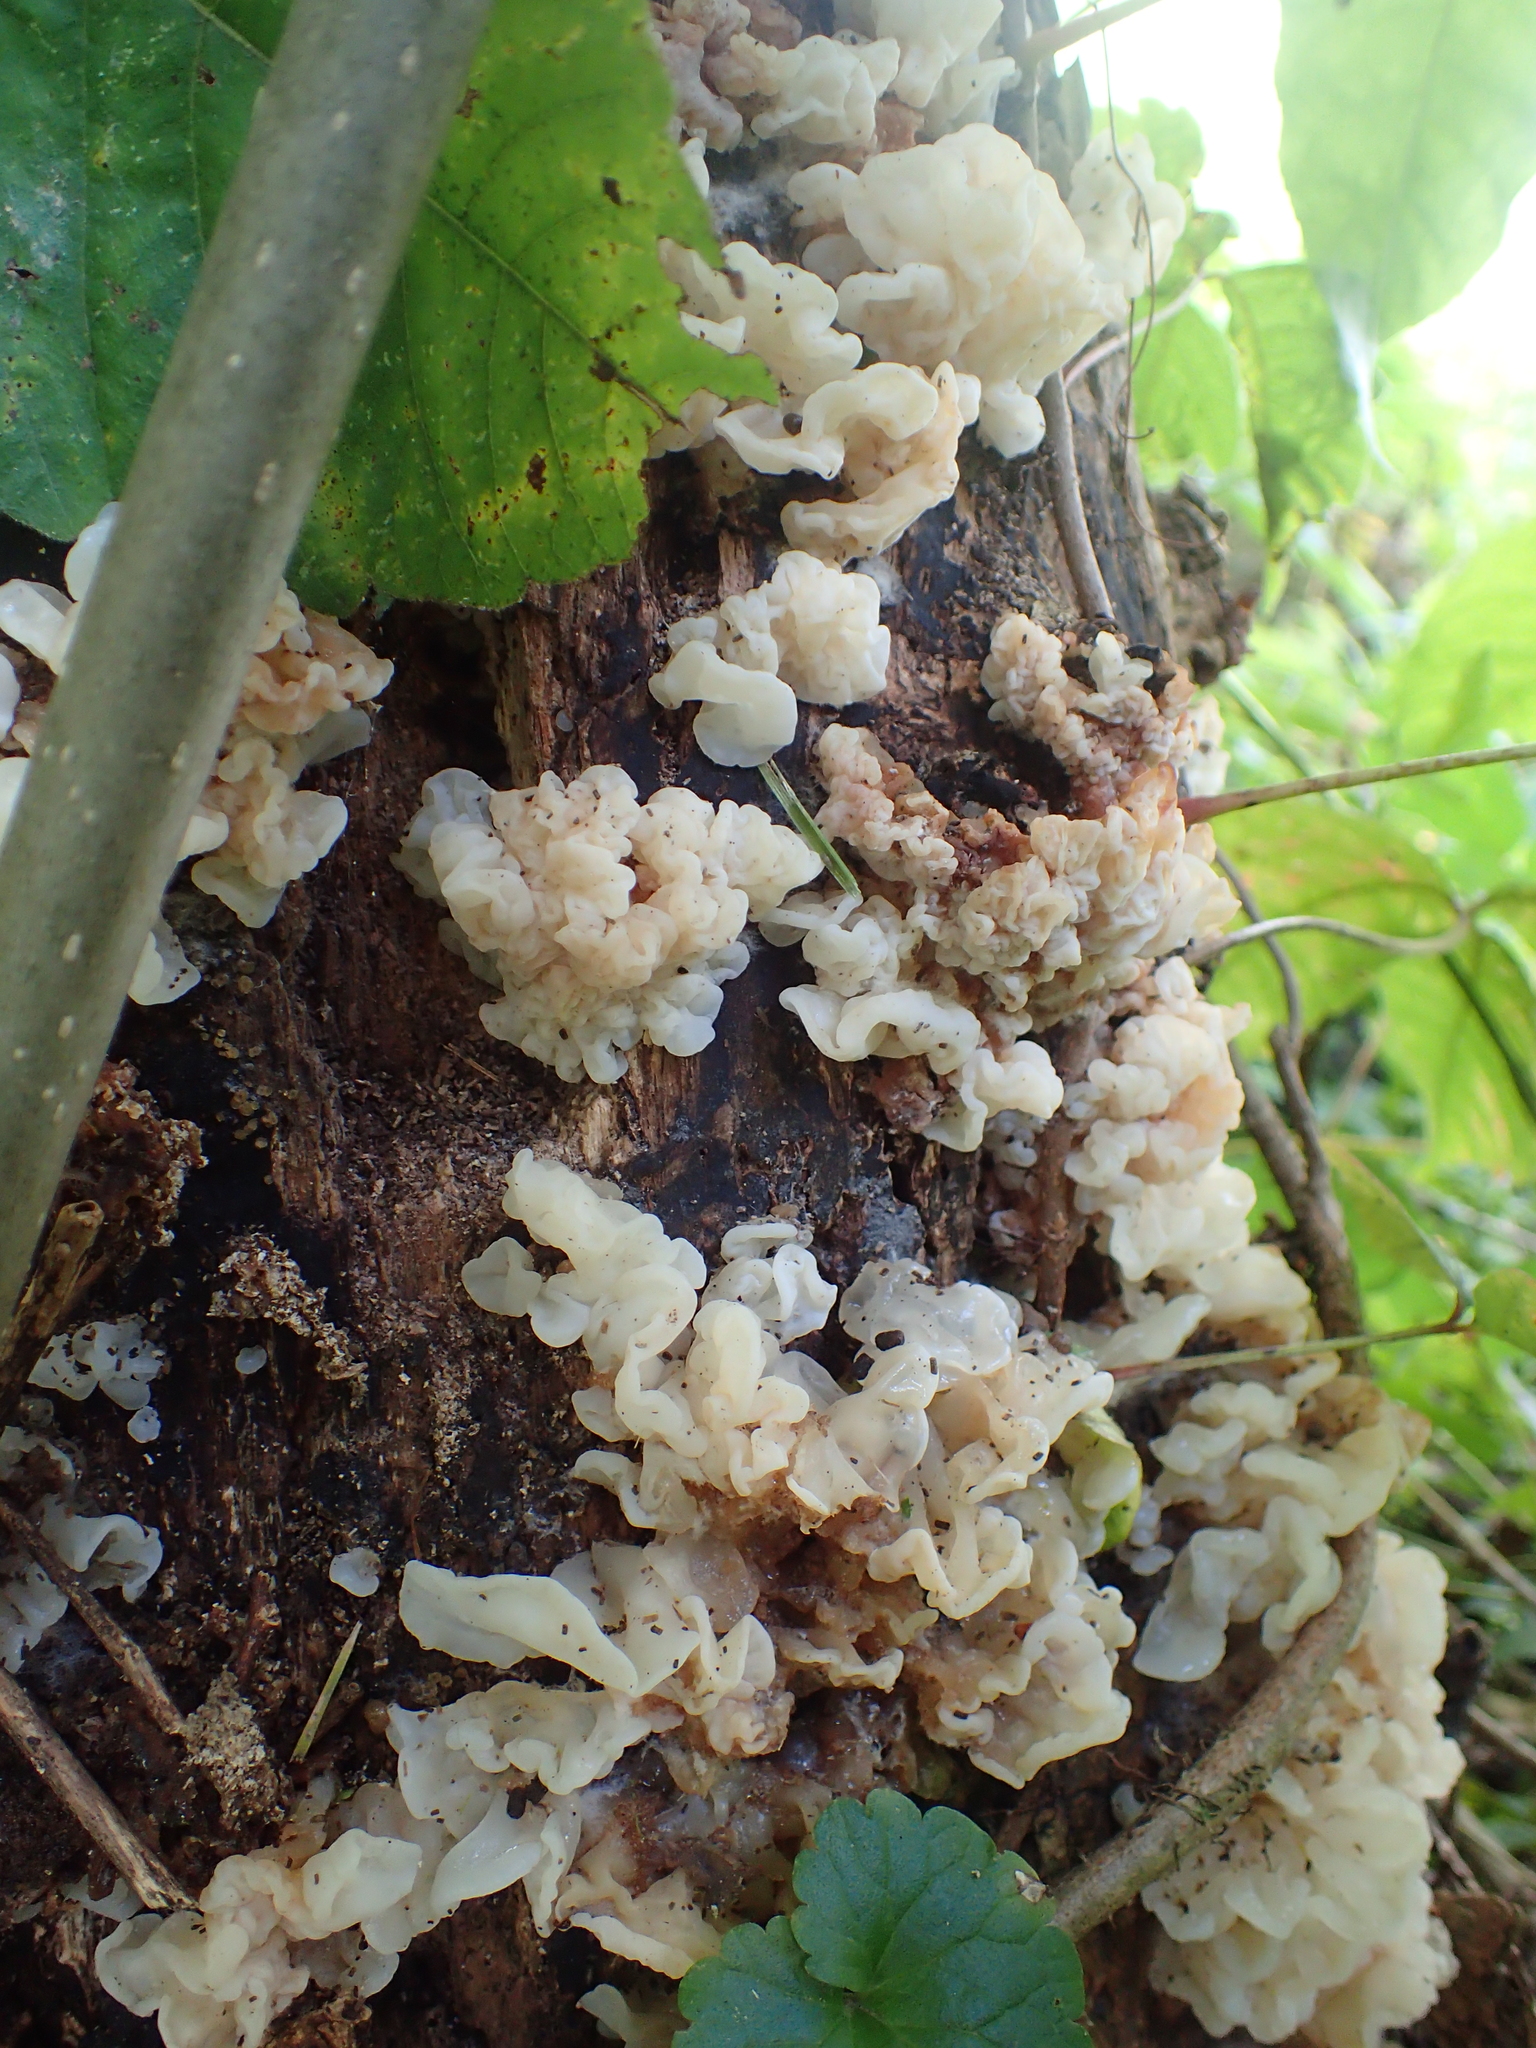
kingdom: Fungi
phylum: Basidiomycota
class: Agaricomycetes
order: Auriculariales
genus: Ductifera
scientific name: Ductifera pululahuana
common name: White jelly fungus
